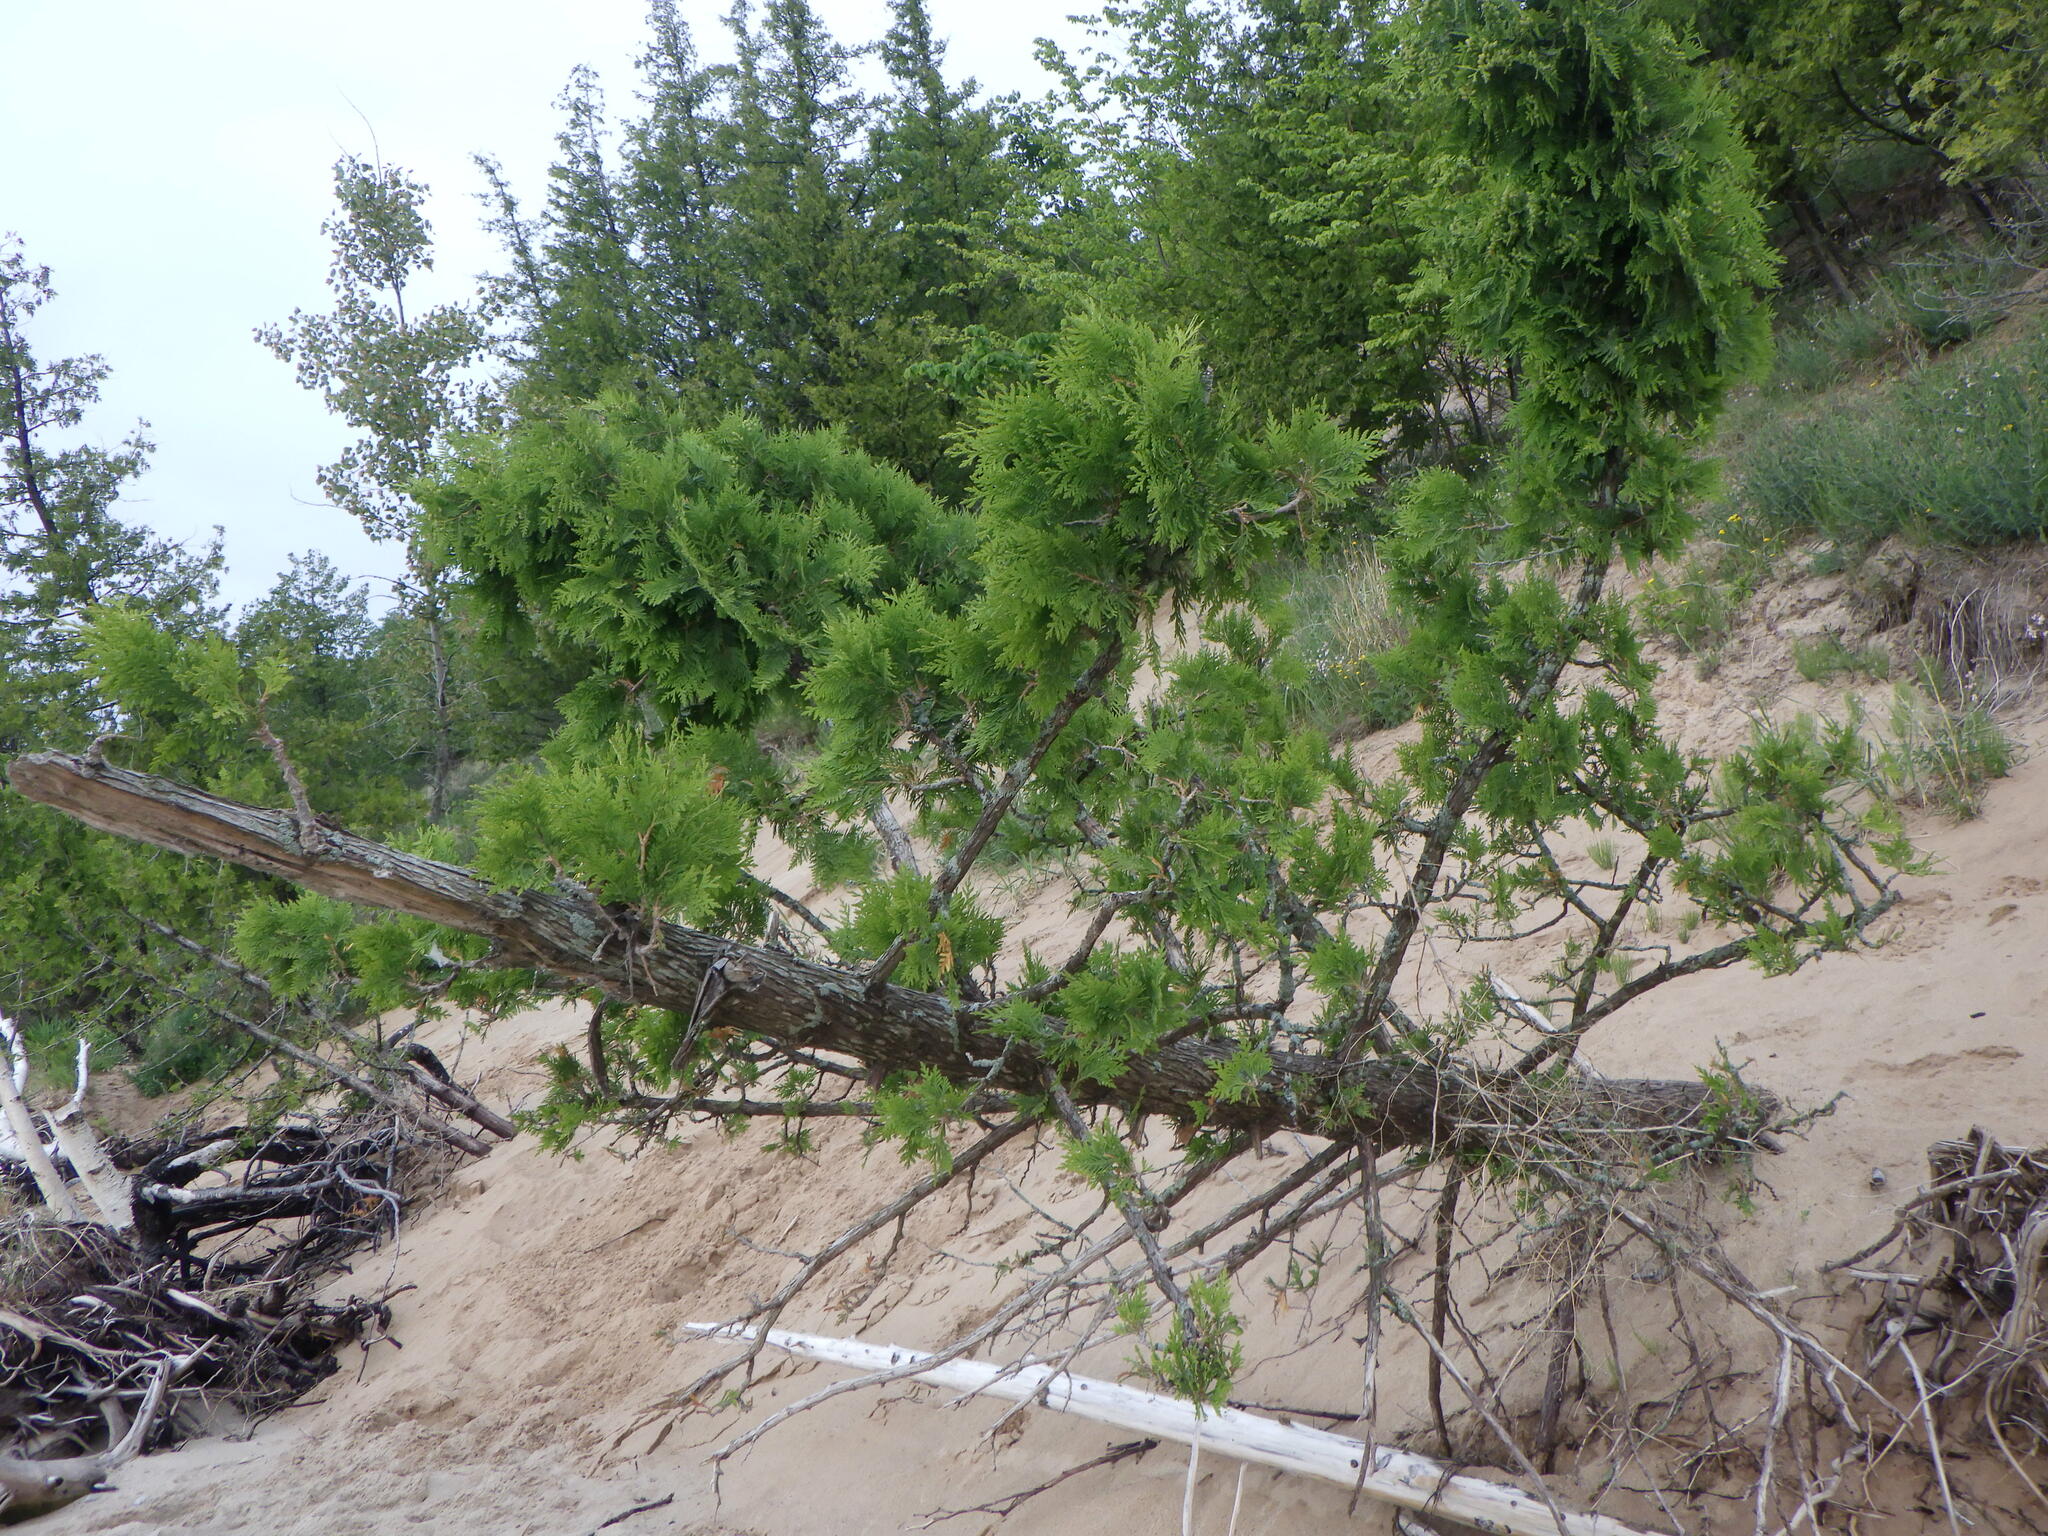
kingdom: Plantae
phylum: Tracheophyta
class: Pinopsida
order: Pinales
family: Cupressaceae
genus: Thuja
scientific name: Thuja occidentalis
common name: Northern white-cedar
